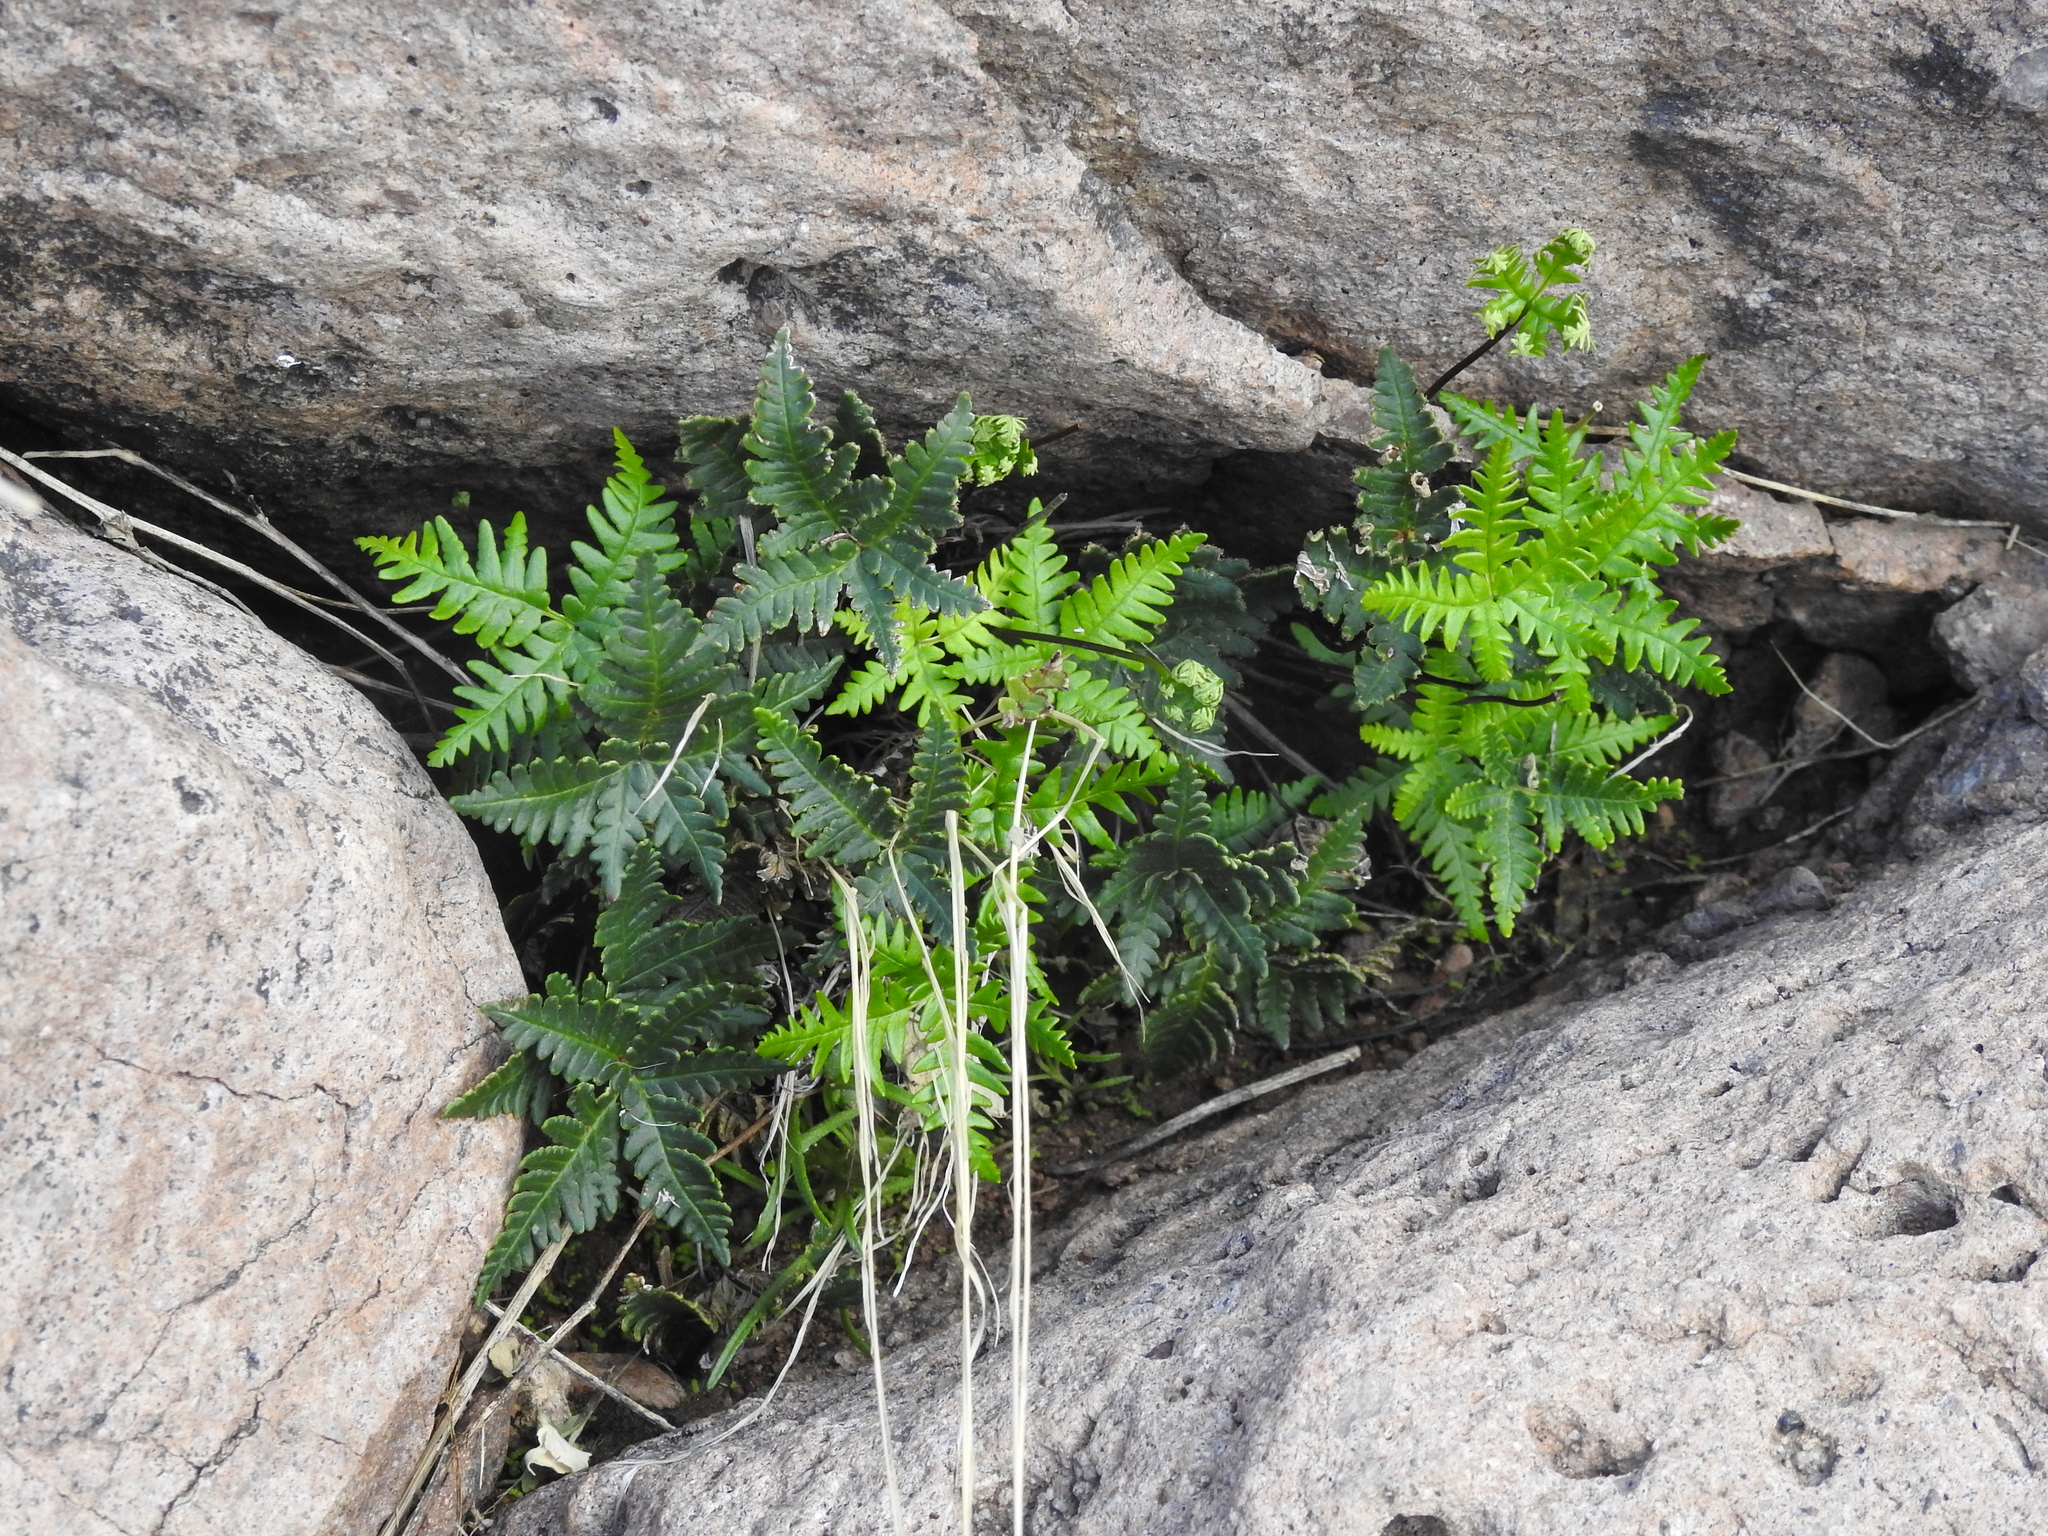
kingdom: Plantae
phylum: Tracheophyta
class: Polypodiopsida
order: Polypodiales
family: Pteridaceae
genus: Notholaena
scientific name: Notholaena standleyi
